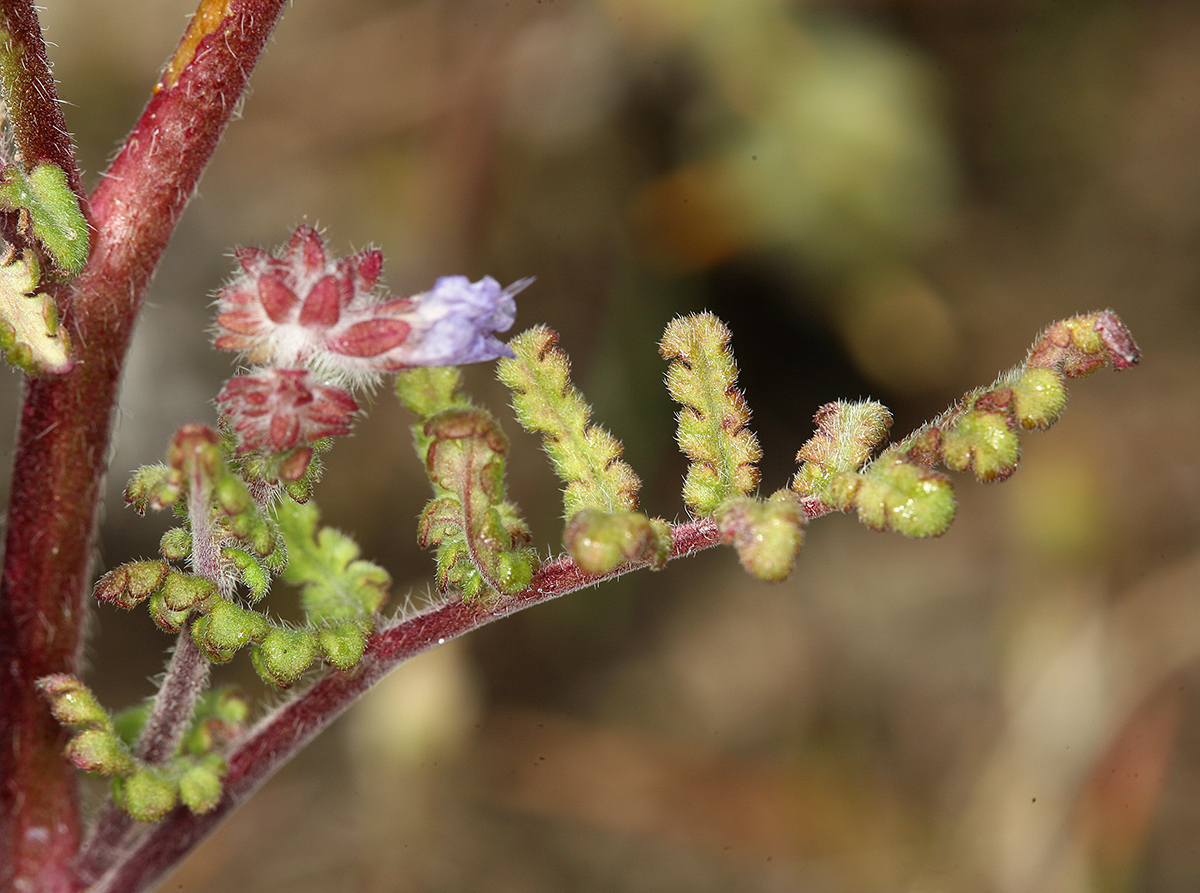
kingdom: Plantae
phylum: Tracheophyta
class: Magnoliopsida
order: Boraginales
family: Hydrophyllaceae
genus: Phacelia
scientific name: Phacelia distans
